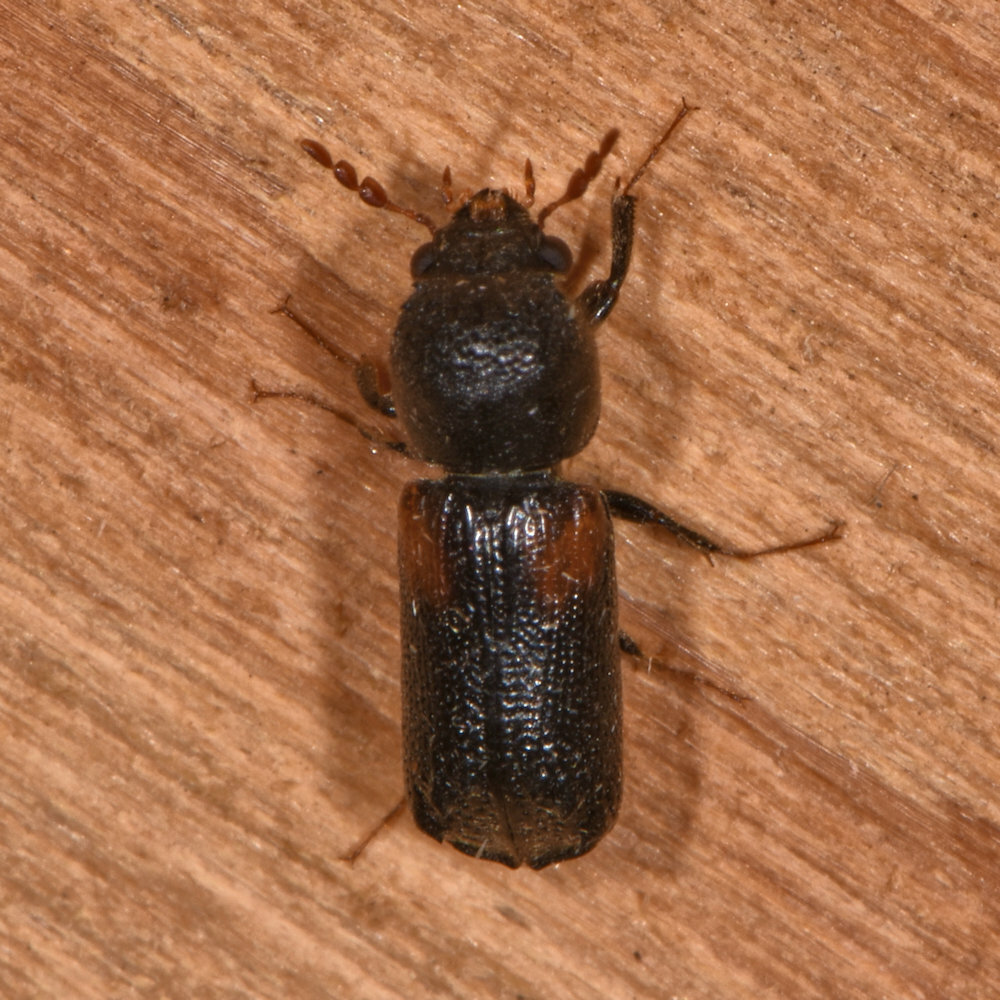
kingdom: Animalia
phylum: Arthropoda
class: Insecta
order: Coleoptera
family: Bostrichidae
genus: Xylobiops
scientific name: Xylobiops basilaris
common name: Red-shouldered bostrichid
